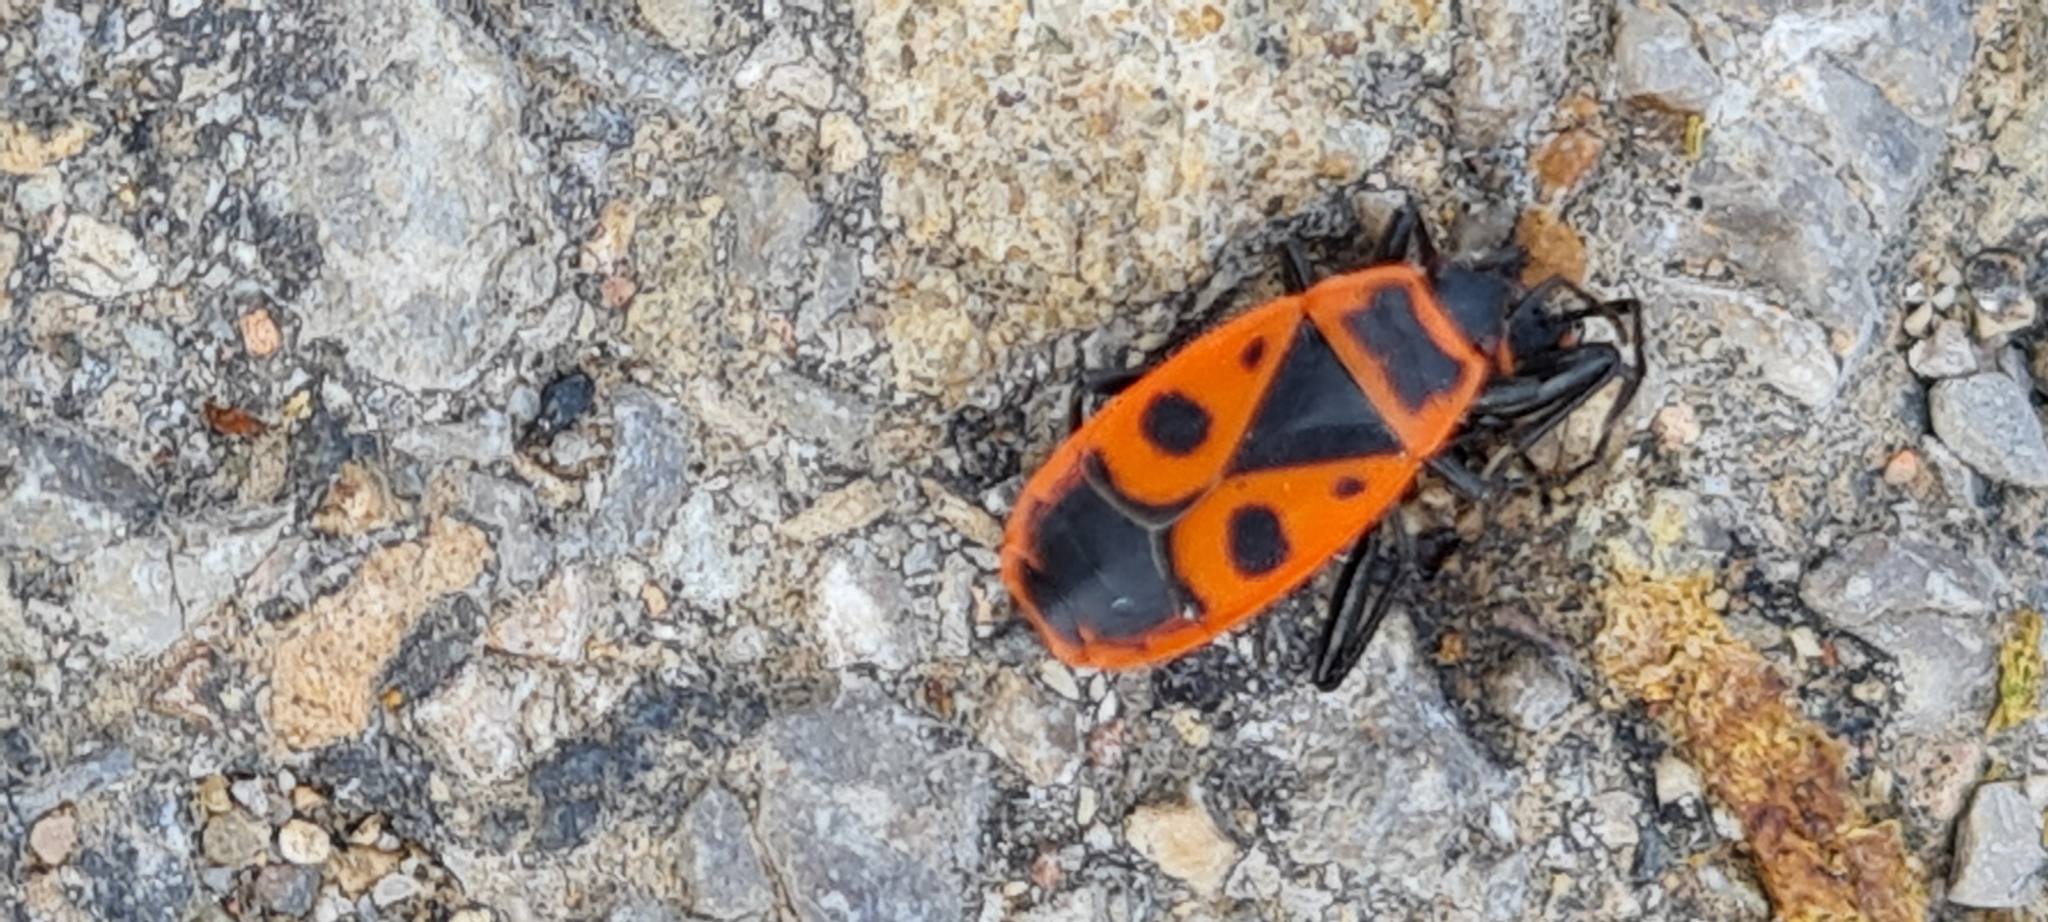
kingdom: Animalia
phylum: Arthropoda
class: Insecta
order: Hemiptera
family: Pyrrhocoridae
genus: Pyrrhocoris
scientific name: Pyrrhocoris apterus
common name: Firebug
